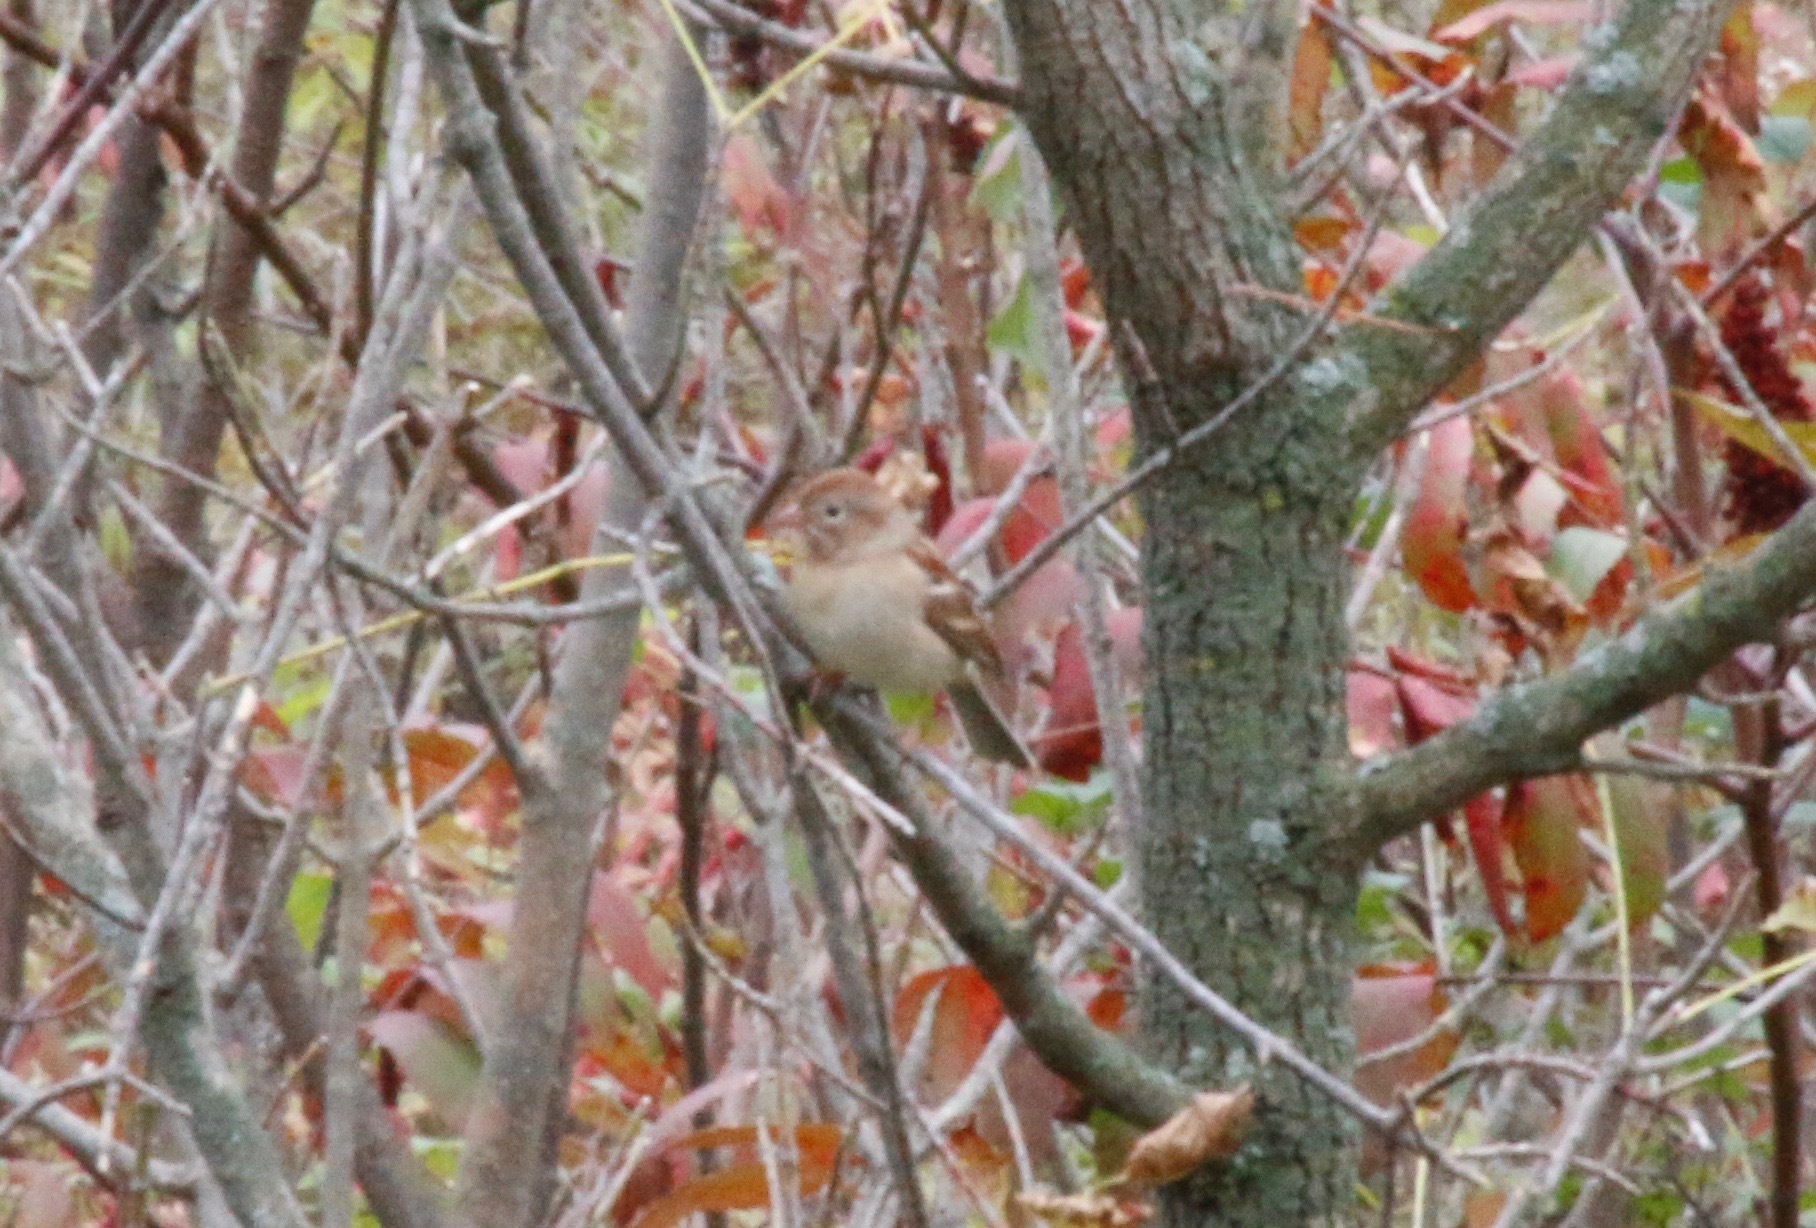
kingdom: Animalia
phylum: Chordata
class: Aves
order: Passeriformes
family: Passerellidae
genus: Spizella
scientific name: Spizella pusilla
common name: Field sparrow
